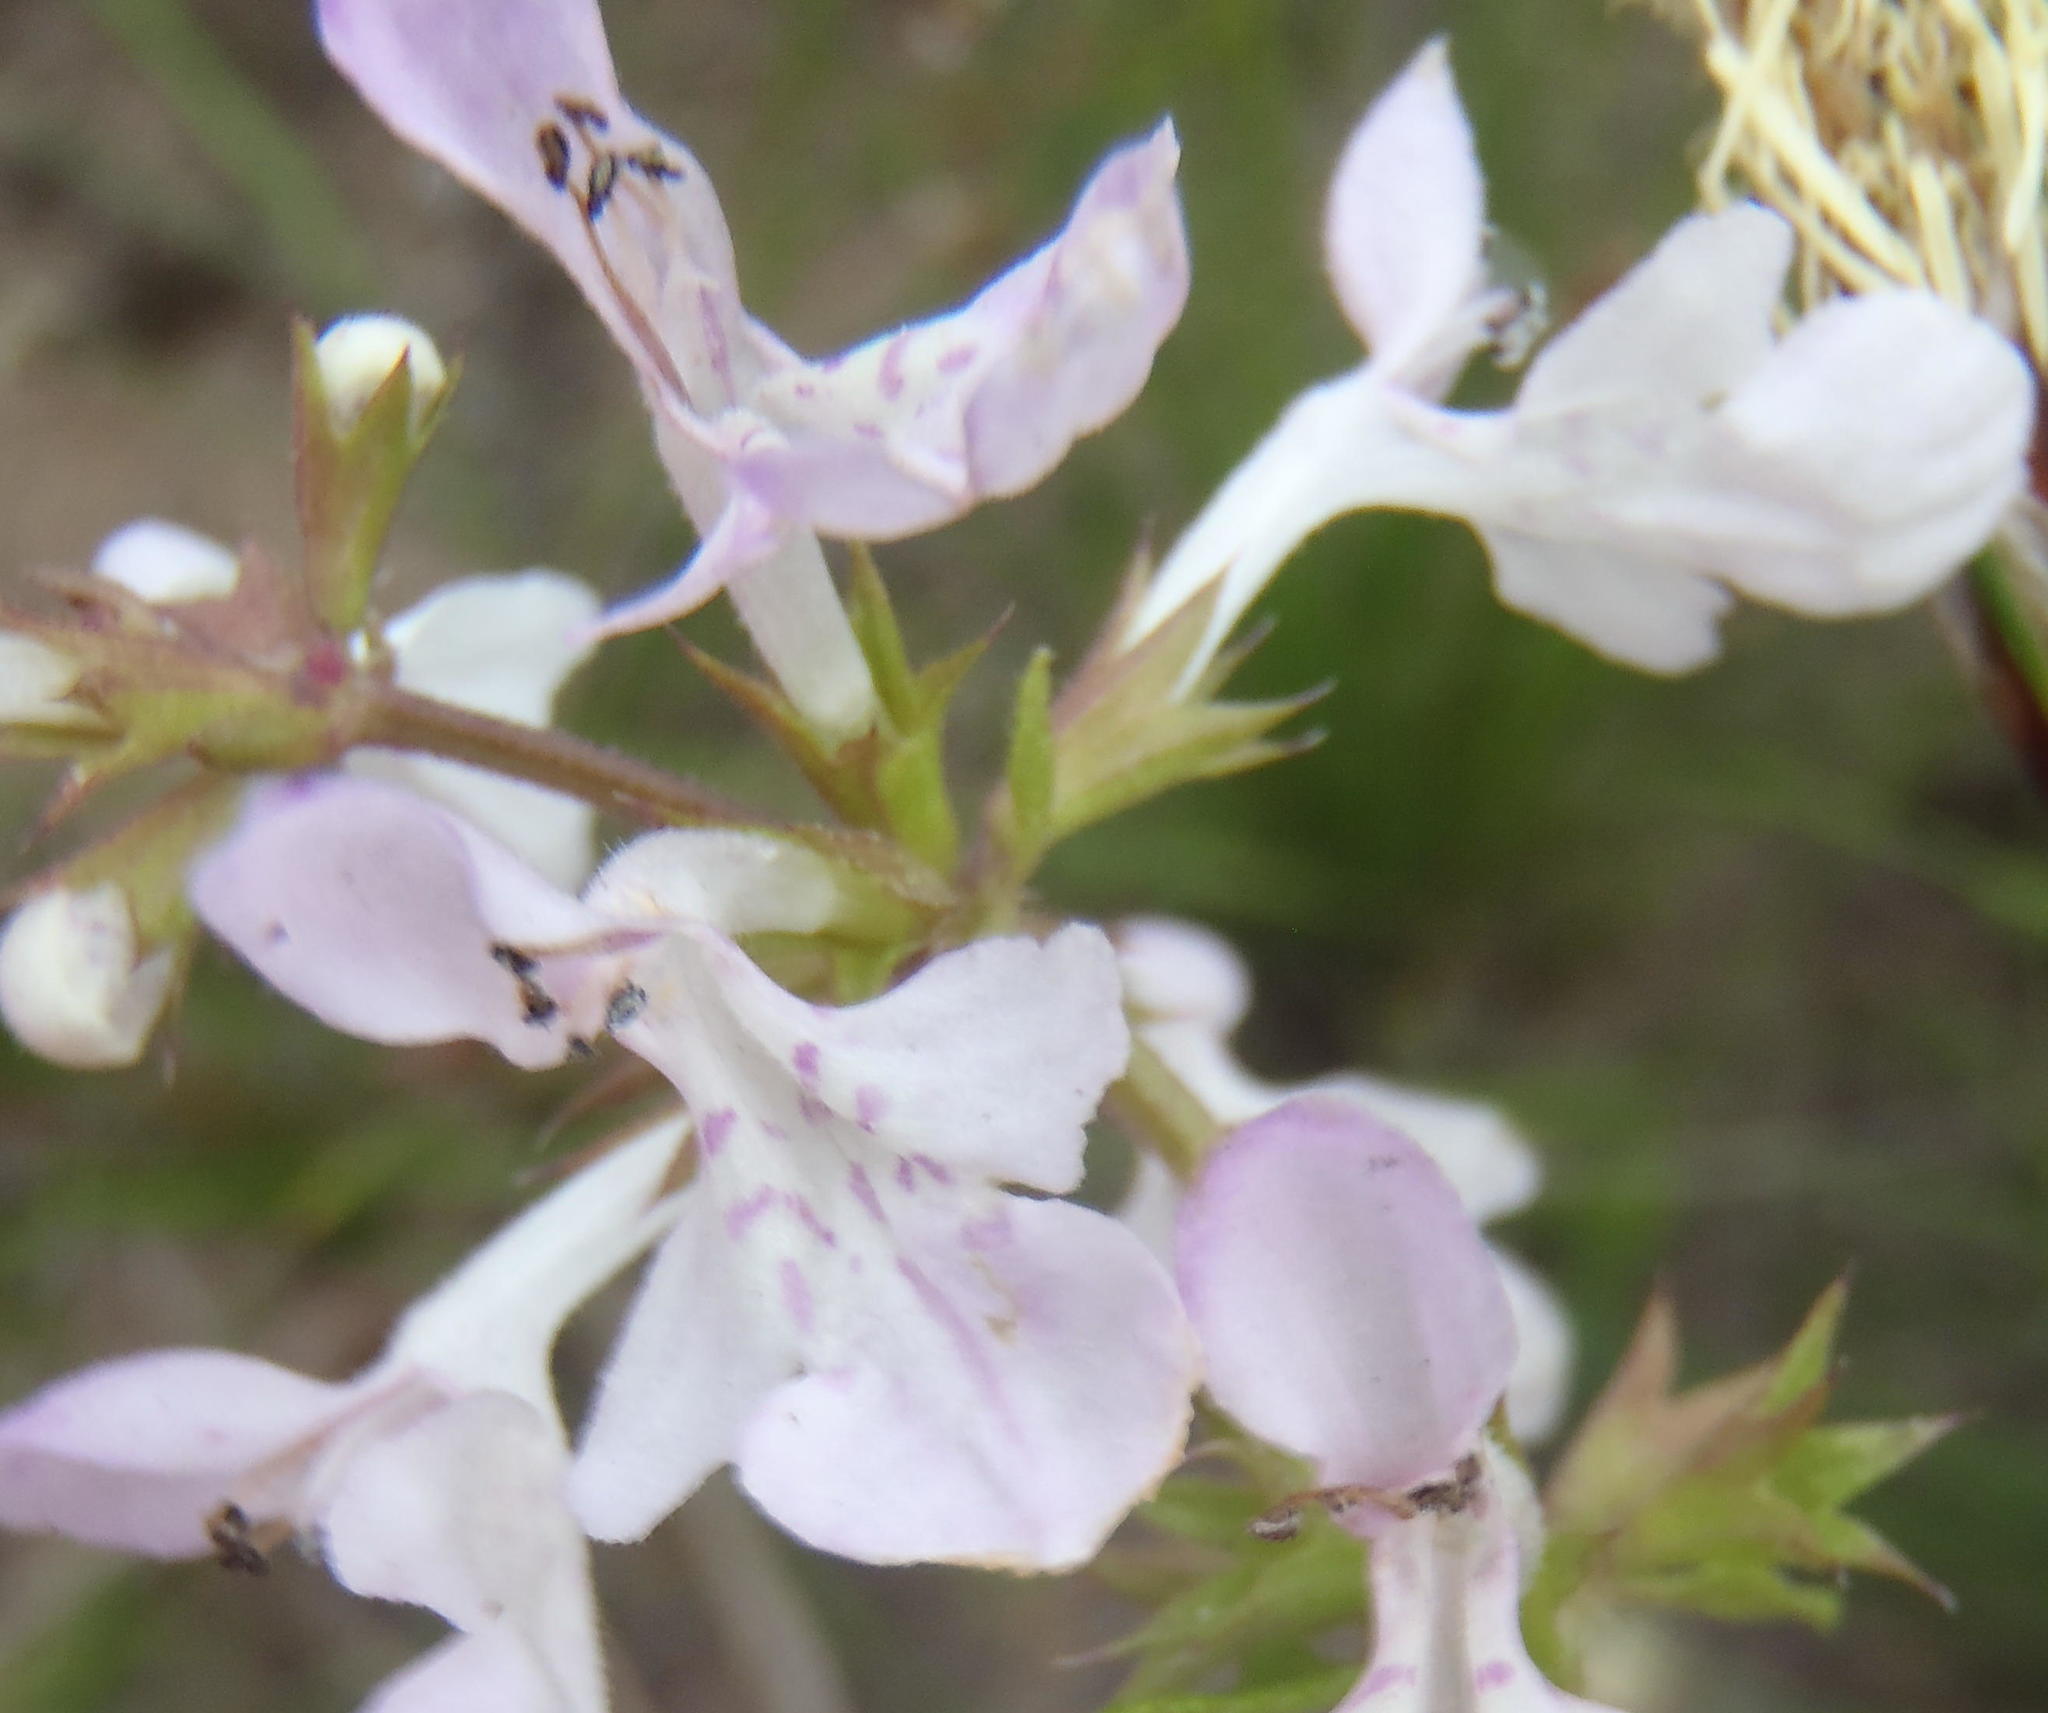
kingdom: Plantae
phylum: Tracheophyta
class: Magnoliopsida
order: Lamiales
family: Lamiaceae
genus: Stachys
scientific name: Stachys aethiopica
